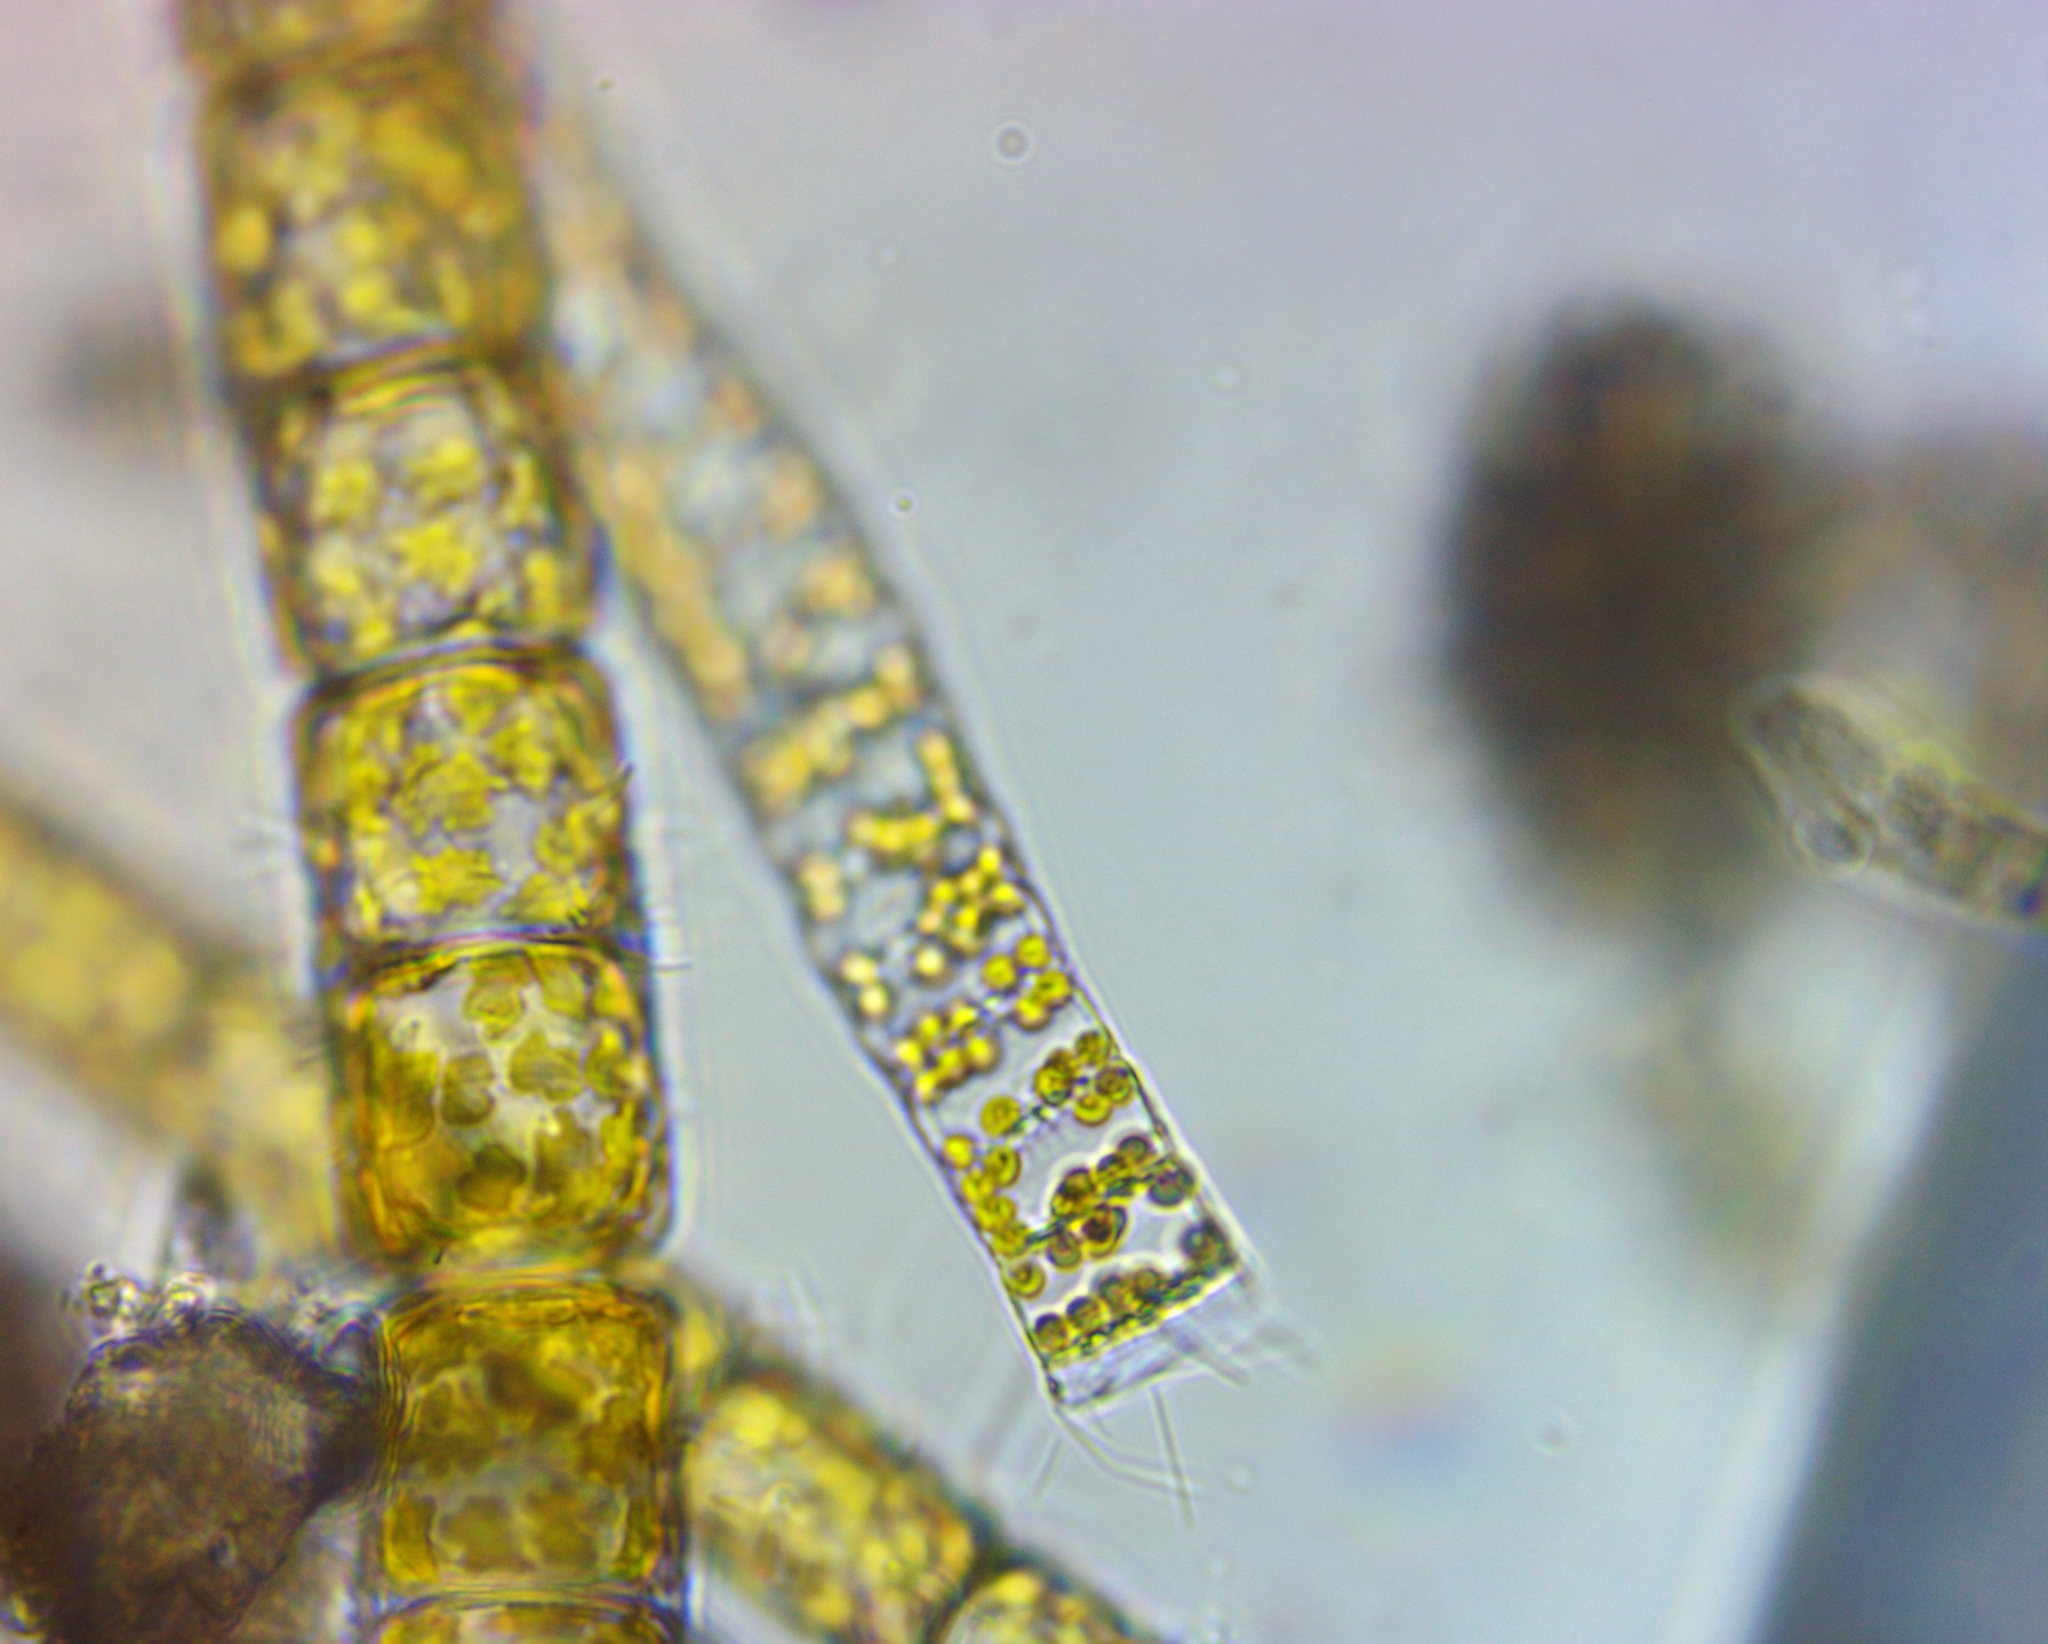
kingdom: Chromista
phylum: Ochrophyta
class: Bacillariophyceae
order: Melosirales
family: Melosiraceae
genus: Melosira
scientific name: Melosira varians
